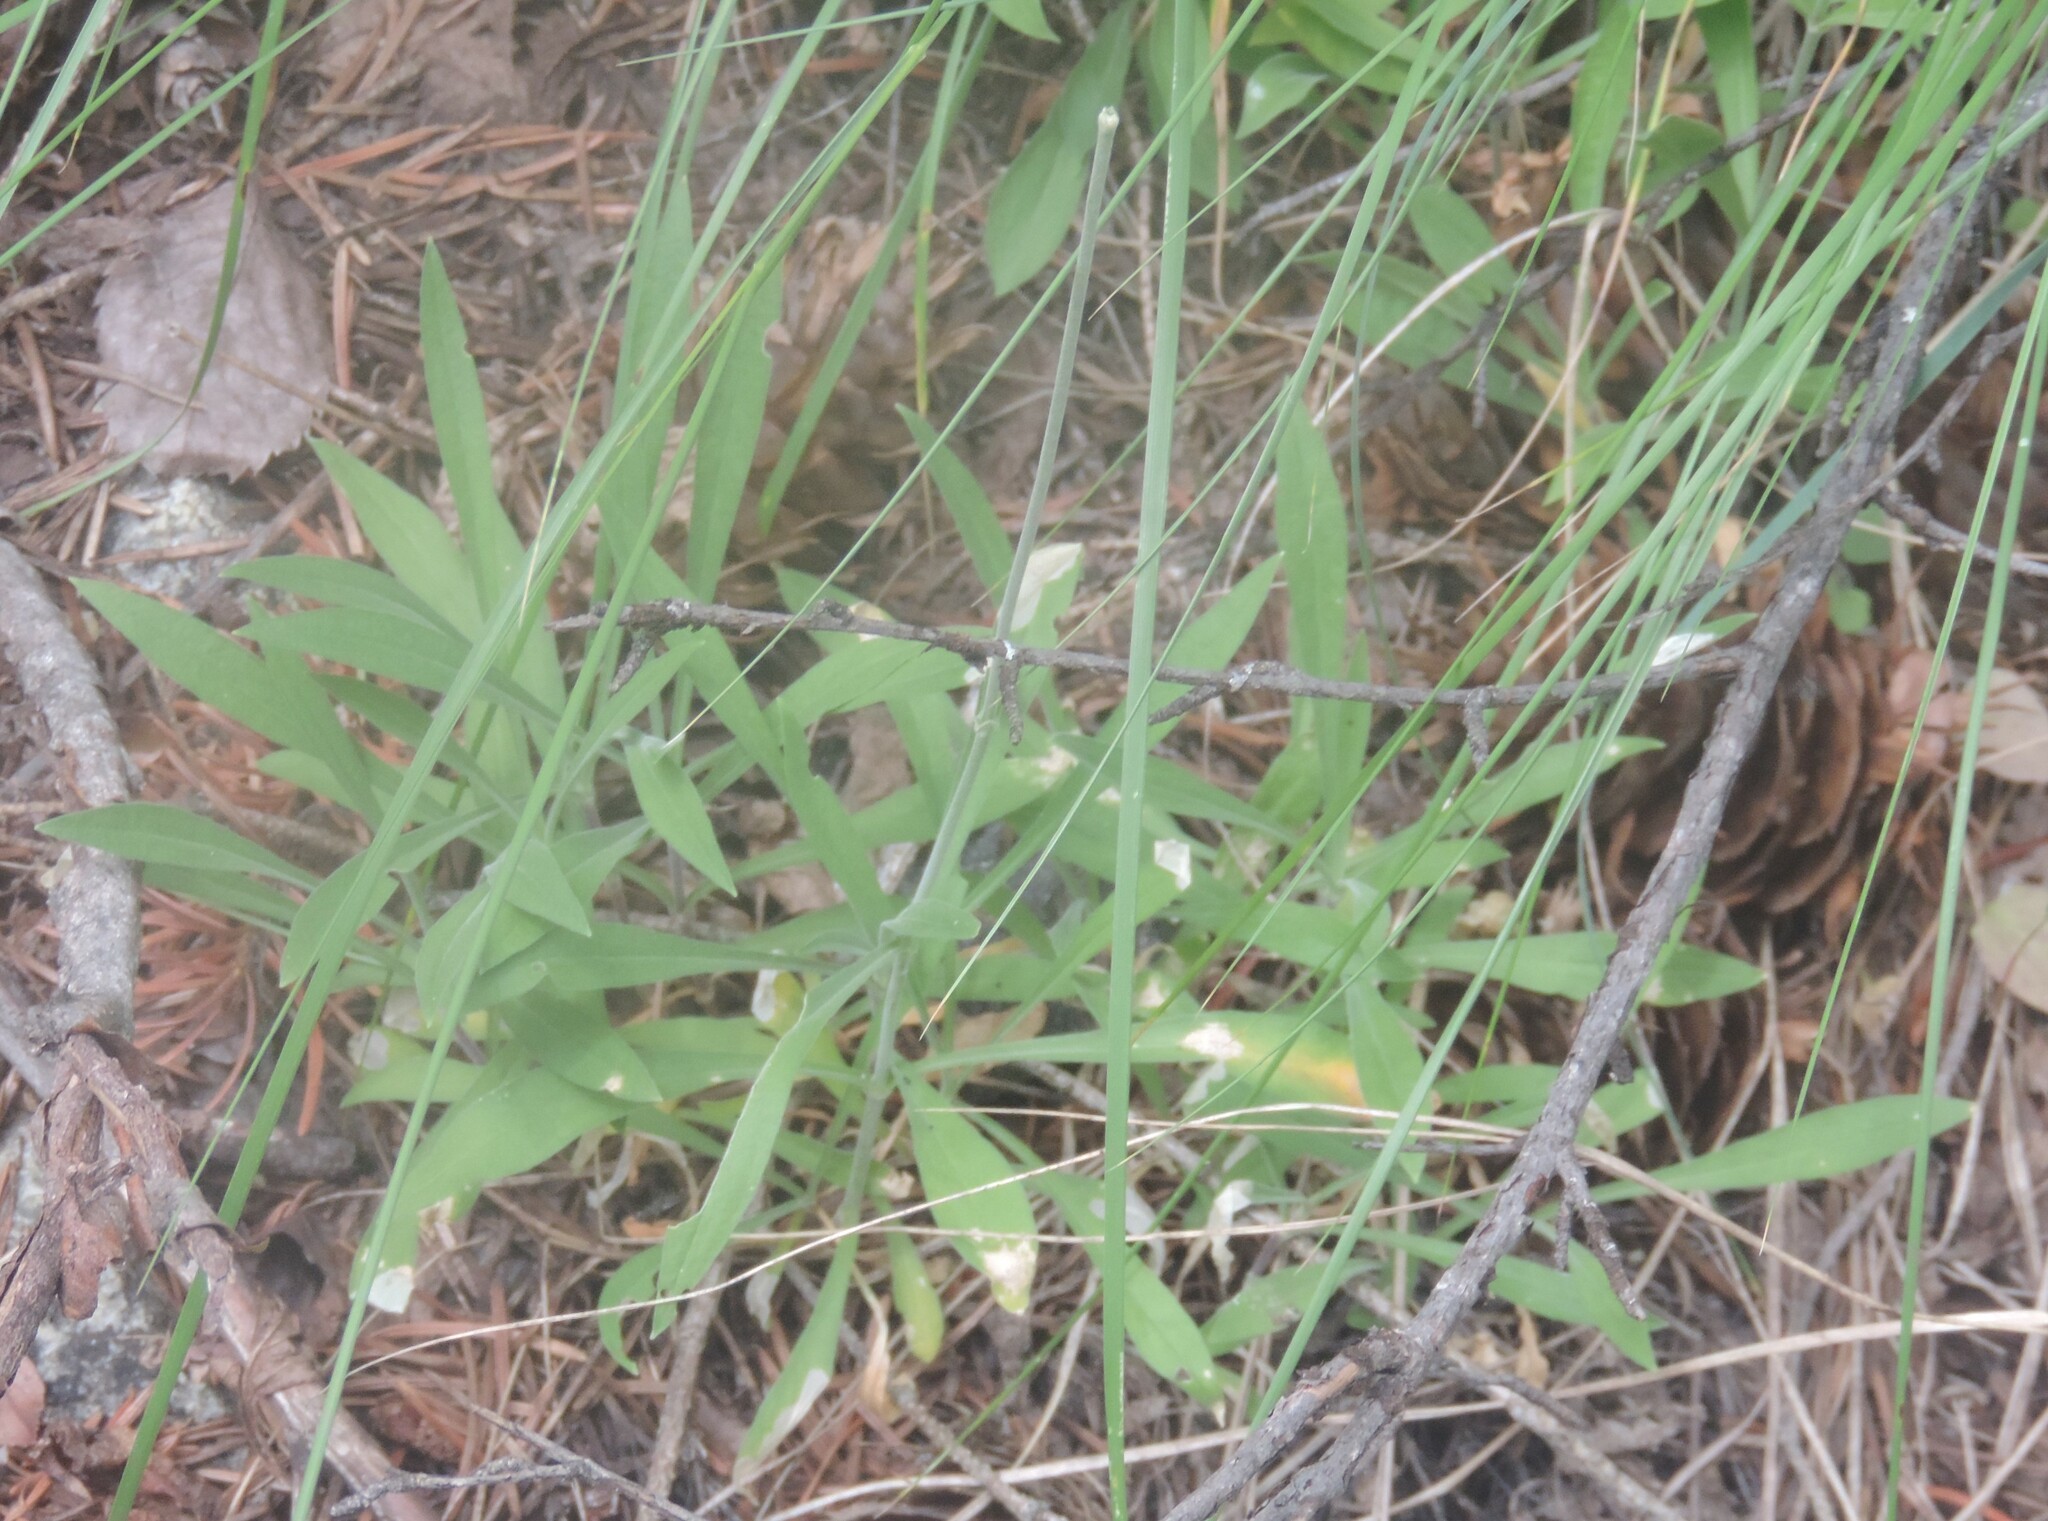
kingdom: Plantae
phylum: Tracheophyta
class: Magnoliopsida
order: Caryophyllales
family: Caryophyllaceae
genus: Silene
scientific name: Silene douglasii
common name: Douglas's catchfly
